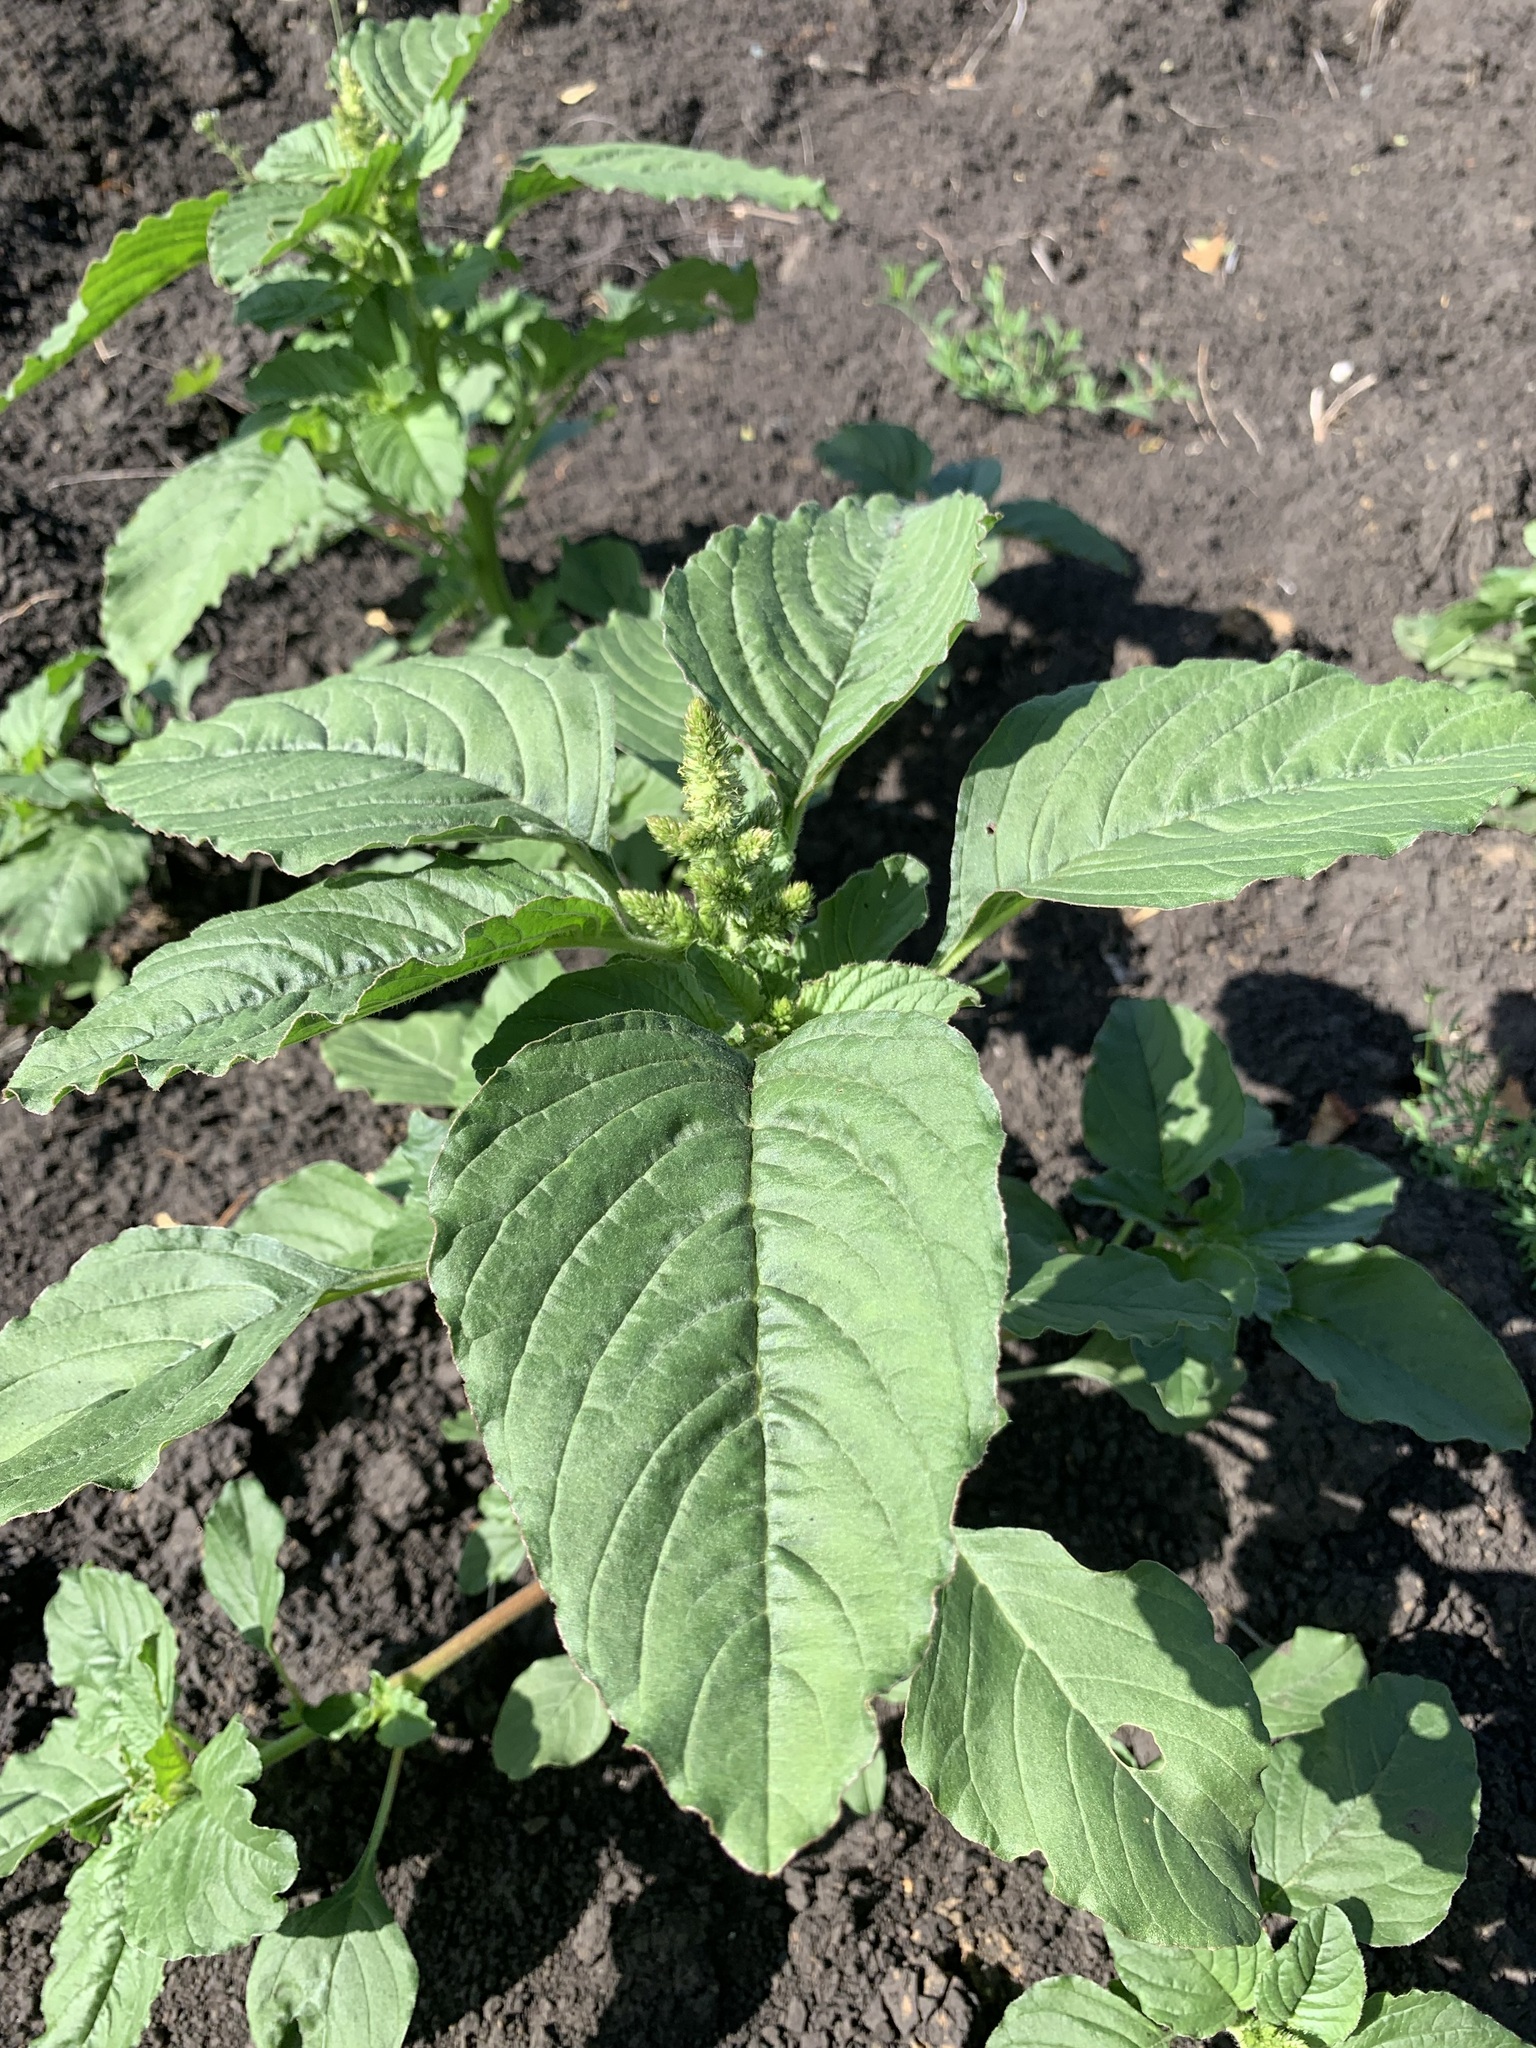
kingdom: Plantae
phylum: Tracheophyta
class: Magnoliopsida
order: Caryophyllales
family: Amaranthaceae
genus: Amaranthus
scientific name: Amaranthus retroflexus
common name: Redroot amaranth
